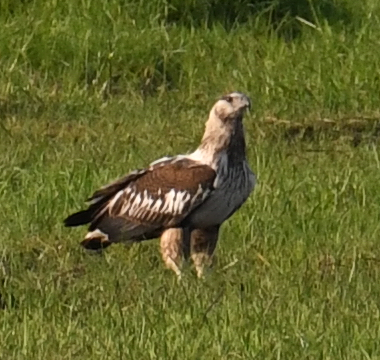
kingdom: Animalia
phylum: Chordata
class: Aves
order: Accipitriformes
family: Accipitridae
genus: Haliaeetus
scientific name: Haliaeetus vocifer
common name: African fish eagle
